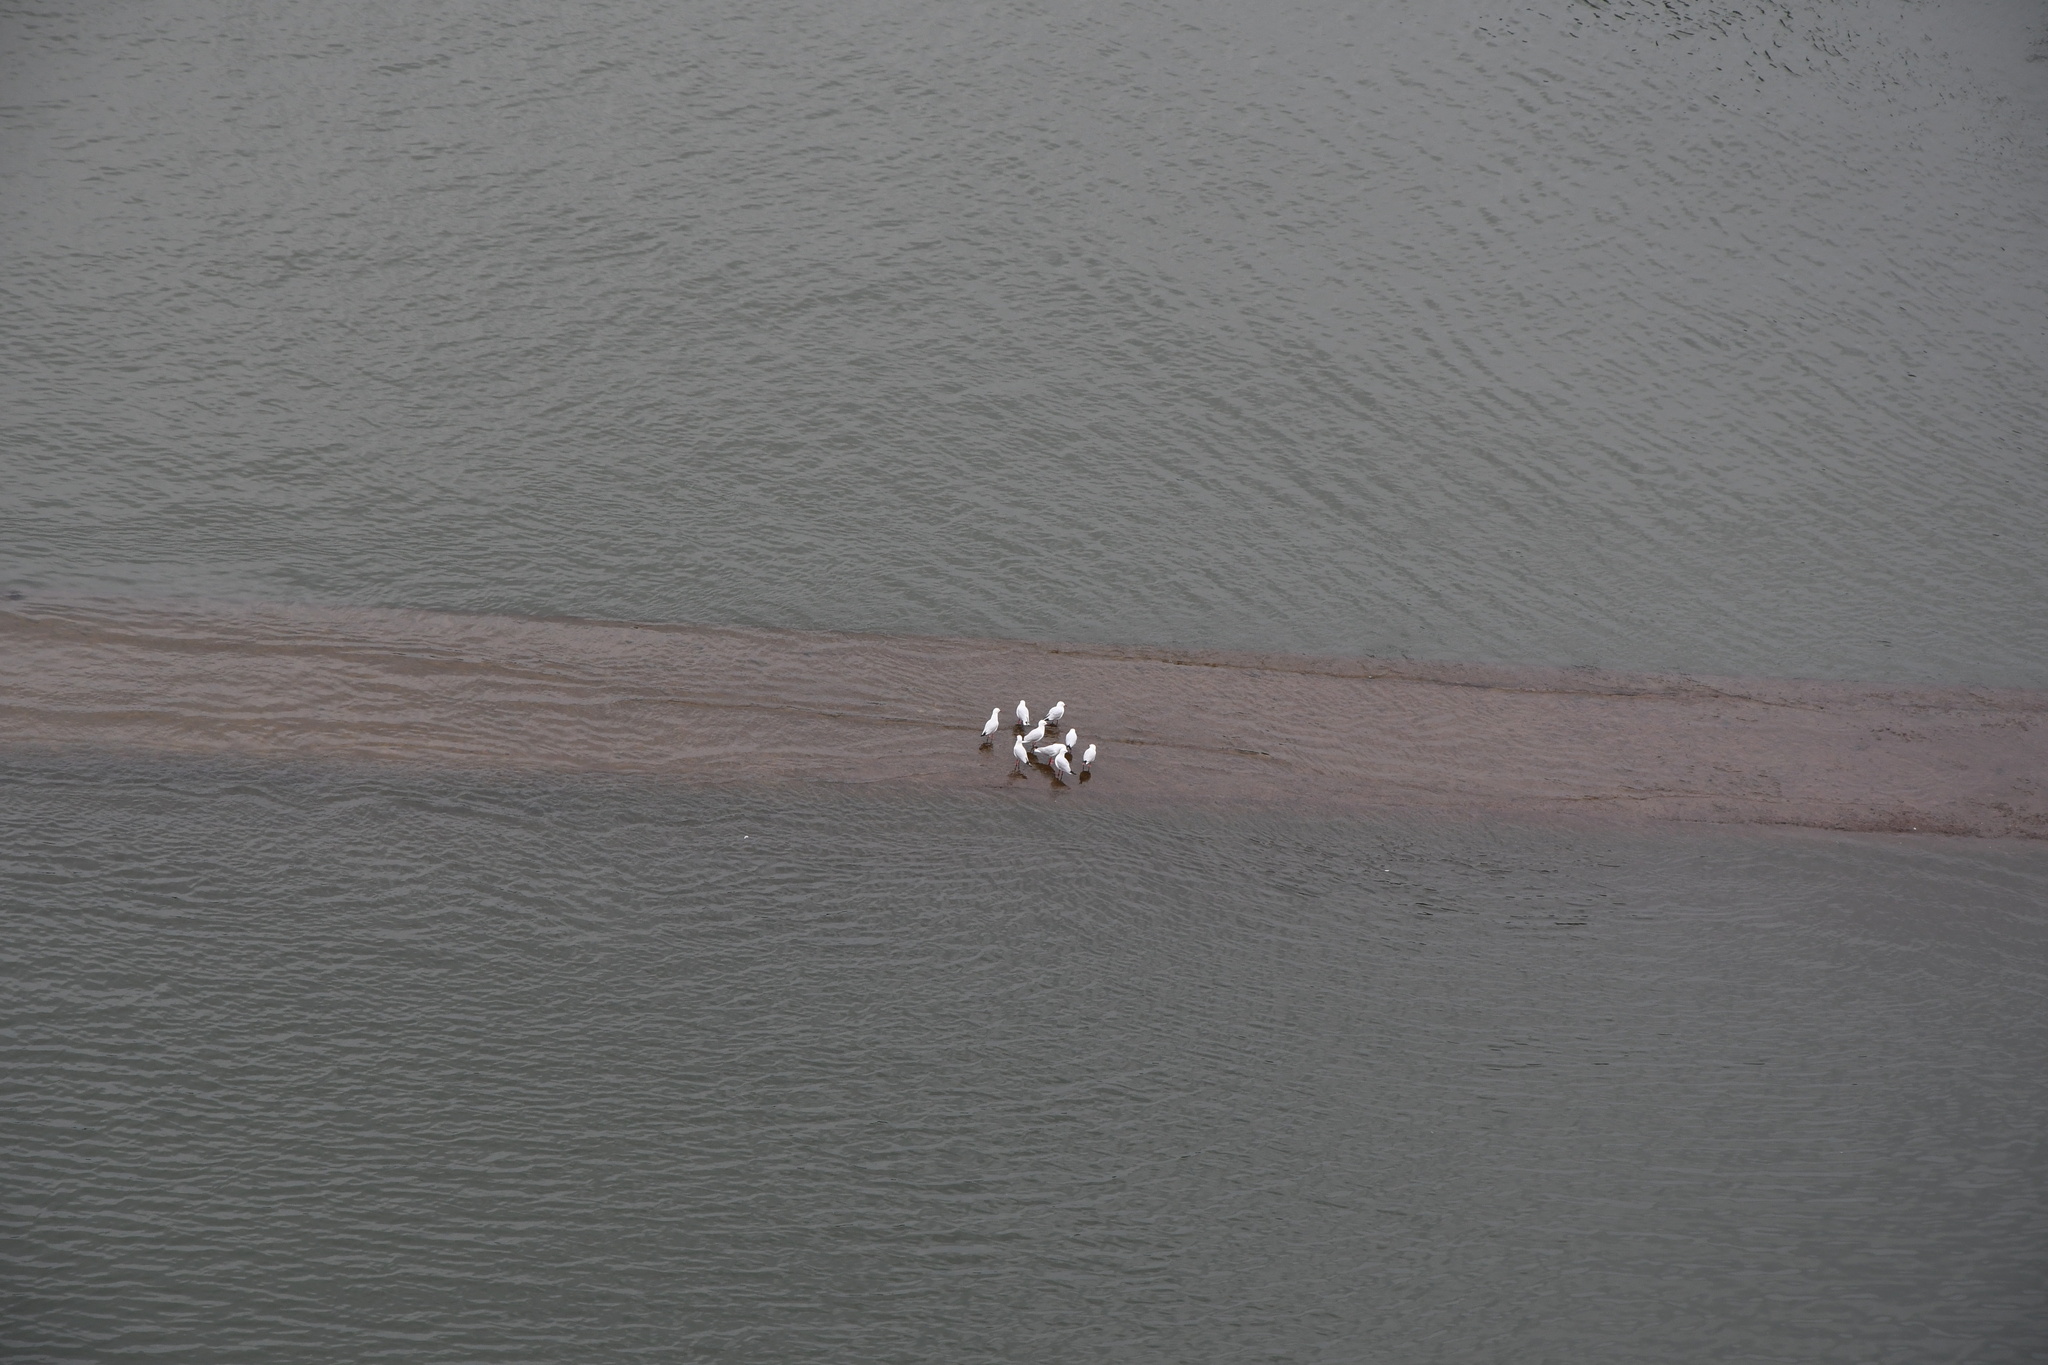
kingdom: Animalia
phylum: Chordata
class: Aves
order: Charadriiformes
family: Laridae
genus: Chroicocephalus
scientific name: Chroicocephalus novaehollandiae
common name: Silver gull
